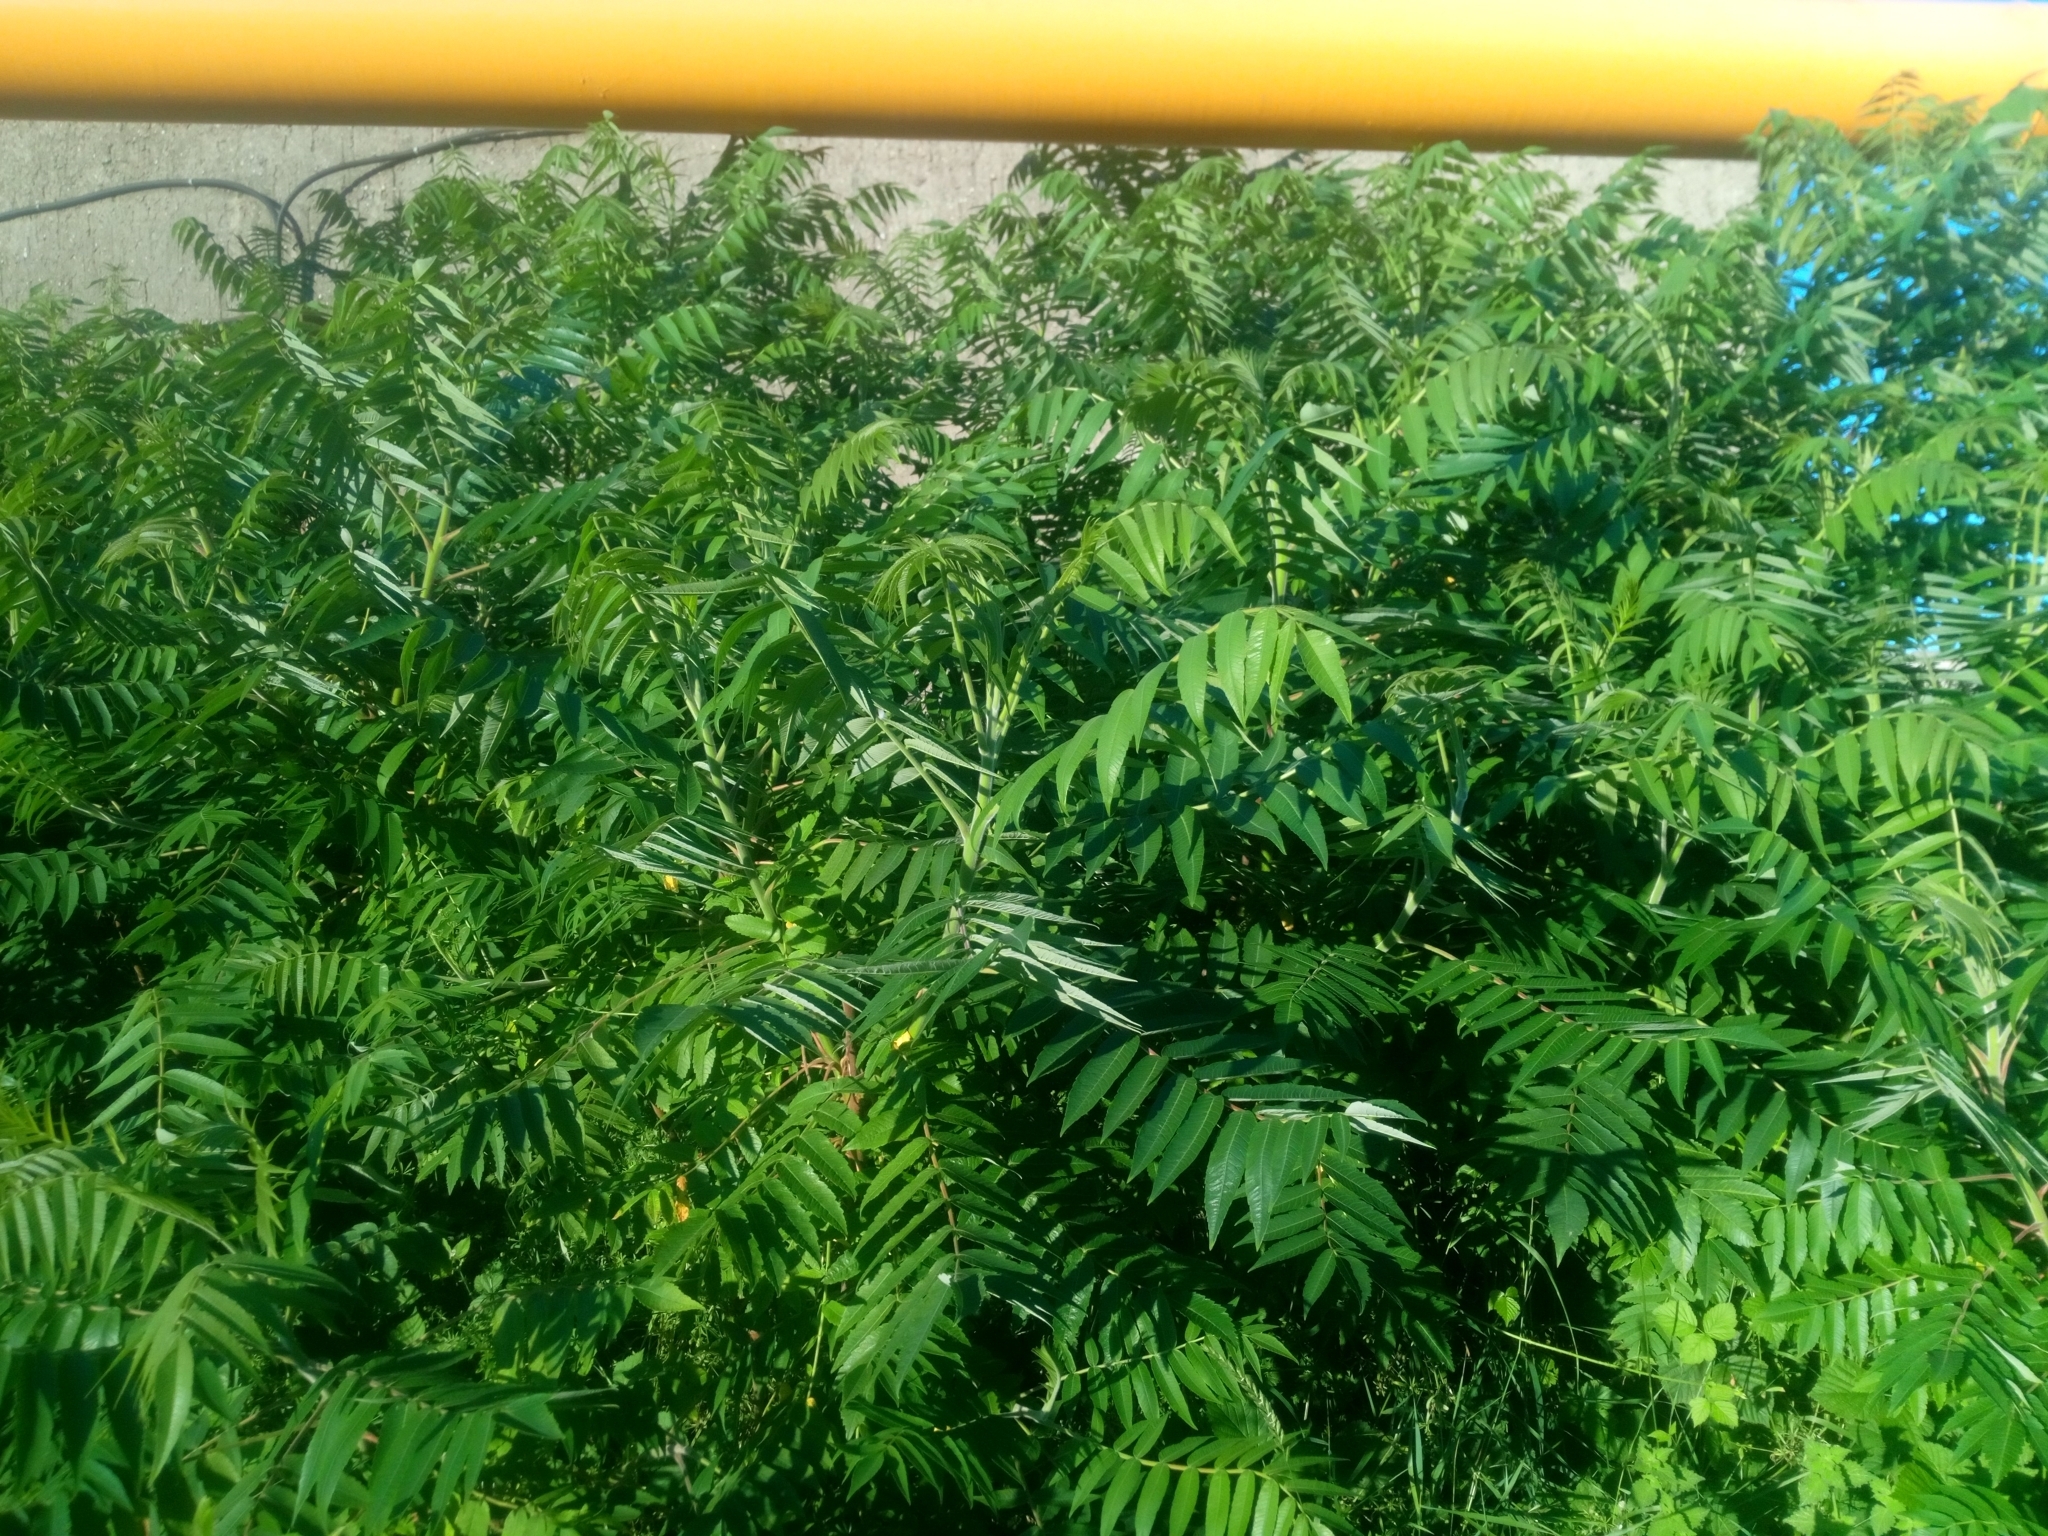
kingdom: Plantae
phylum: Tracheophyta
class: Magnoliopsida
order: Sapindales
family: Anacardiaceae
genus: Rhus
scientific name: Rhus typhina
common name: Staghorn sumac
